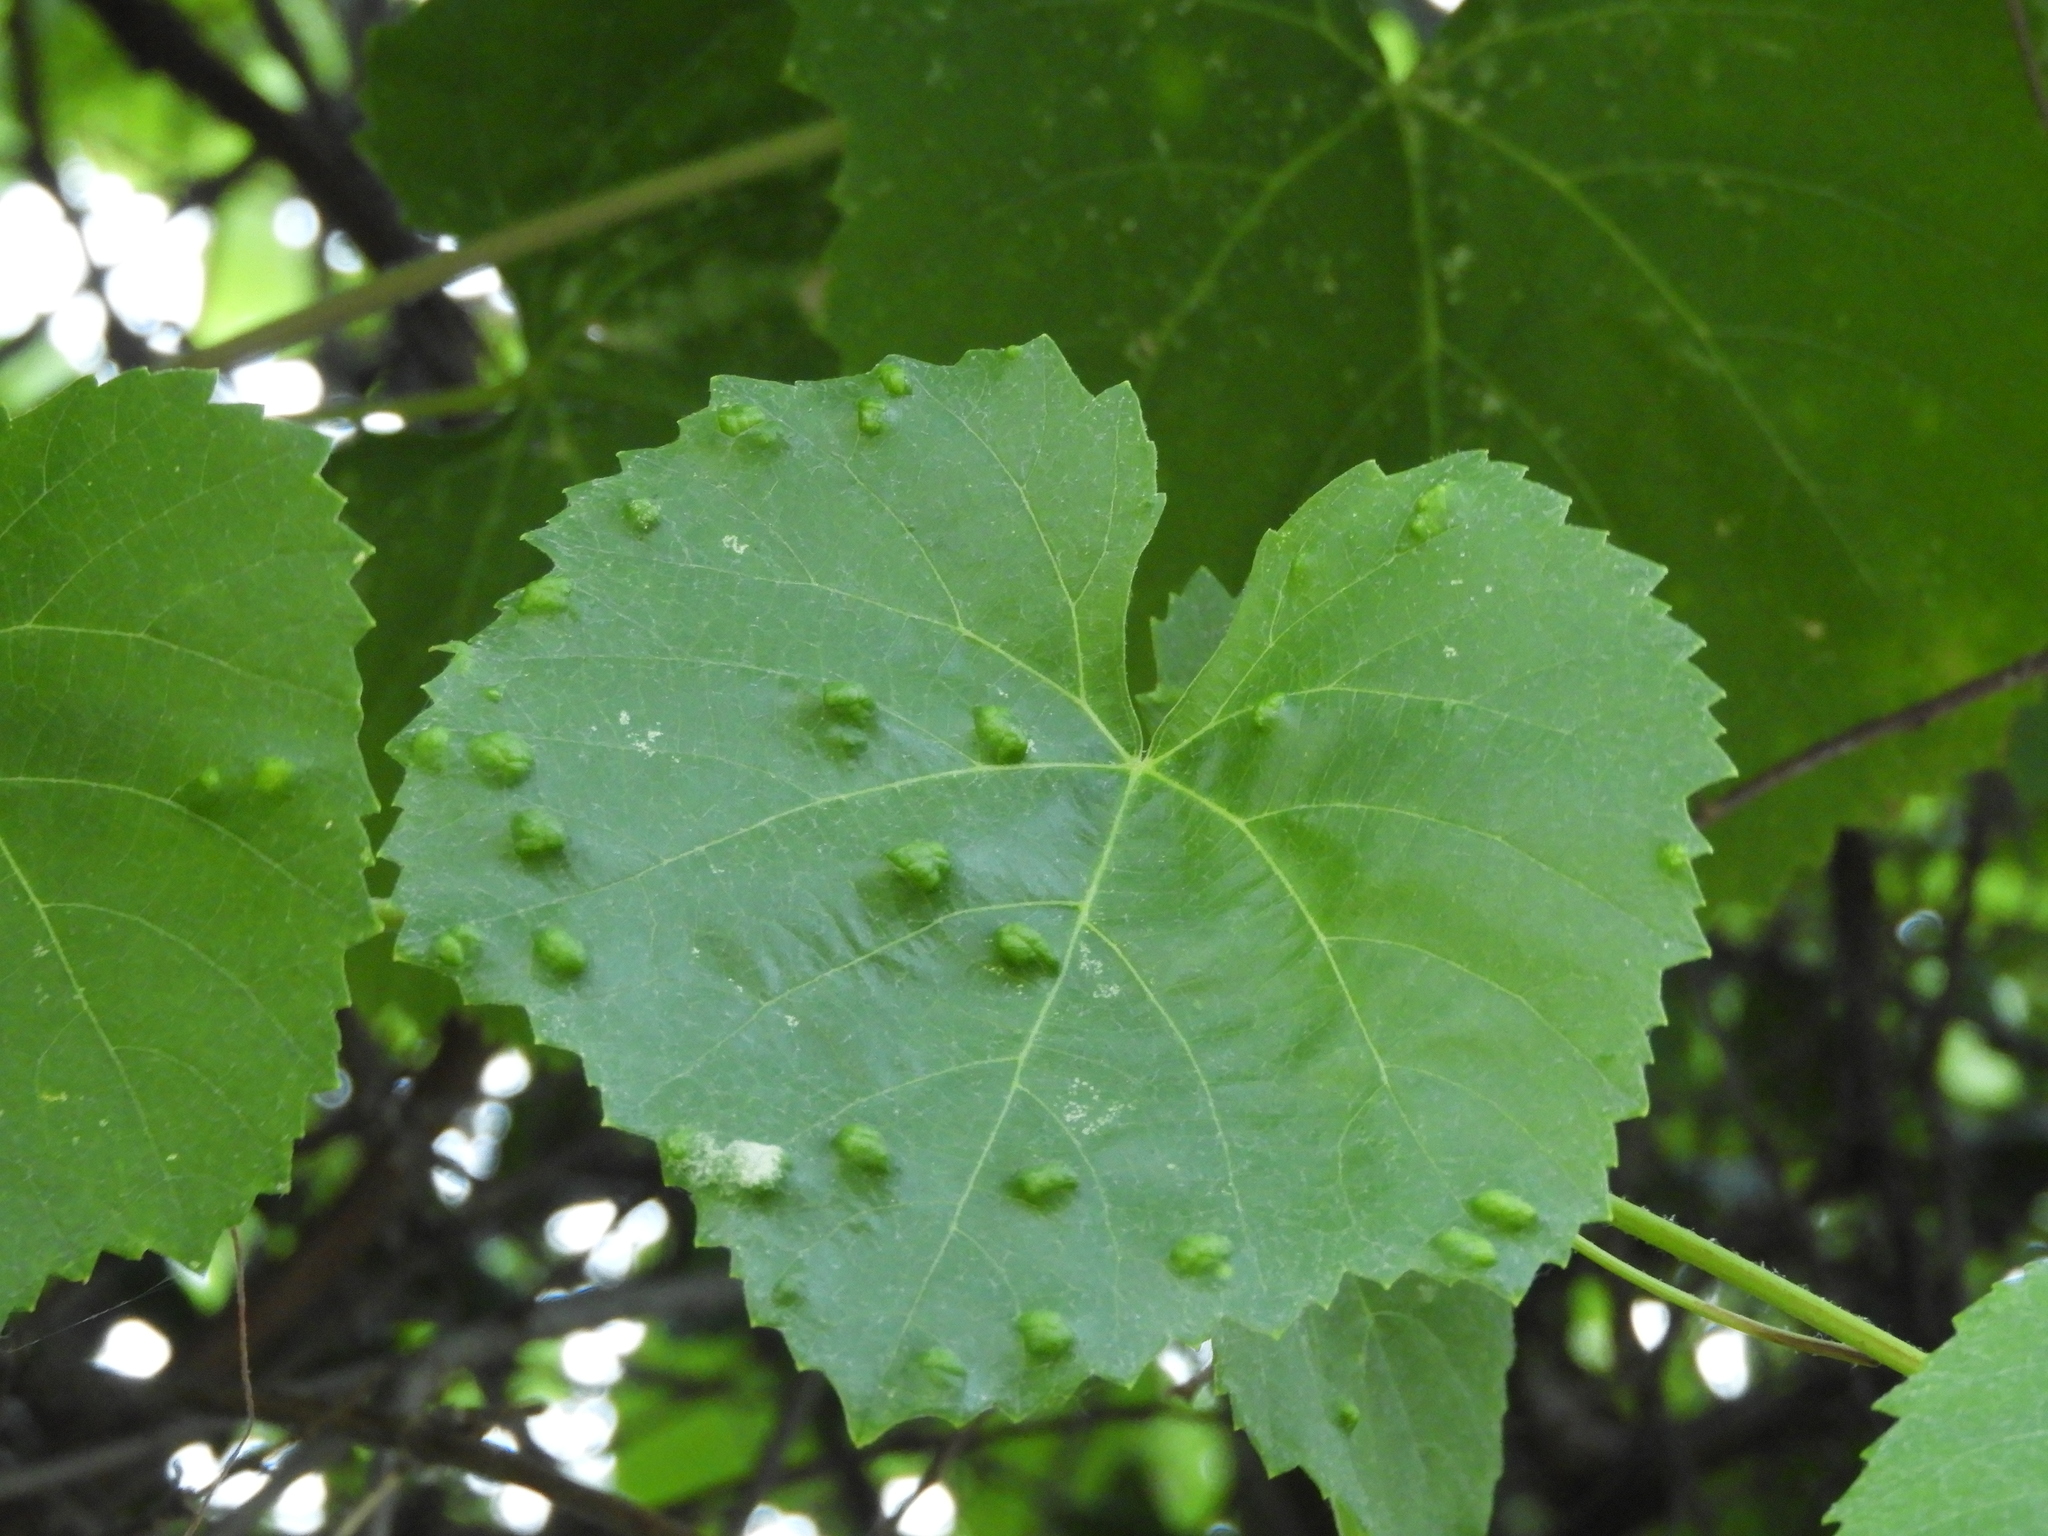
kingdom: Animalia
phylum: Arthropoda
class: Arachnida
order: Trombidiformes
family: Eriophyidae
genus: Colomerus
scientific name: Colomerus vitis
